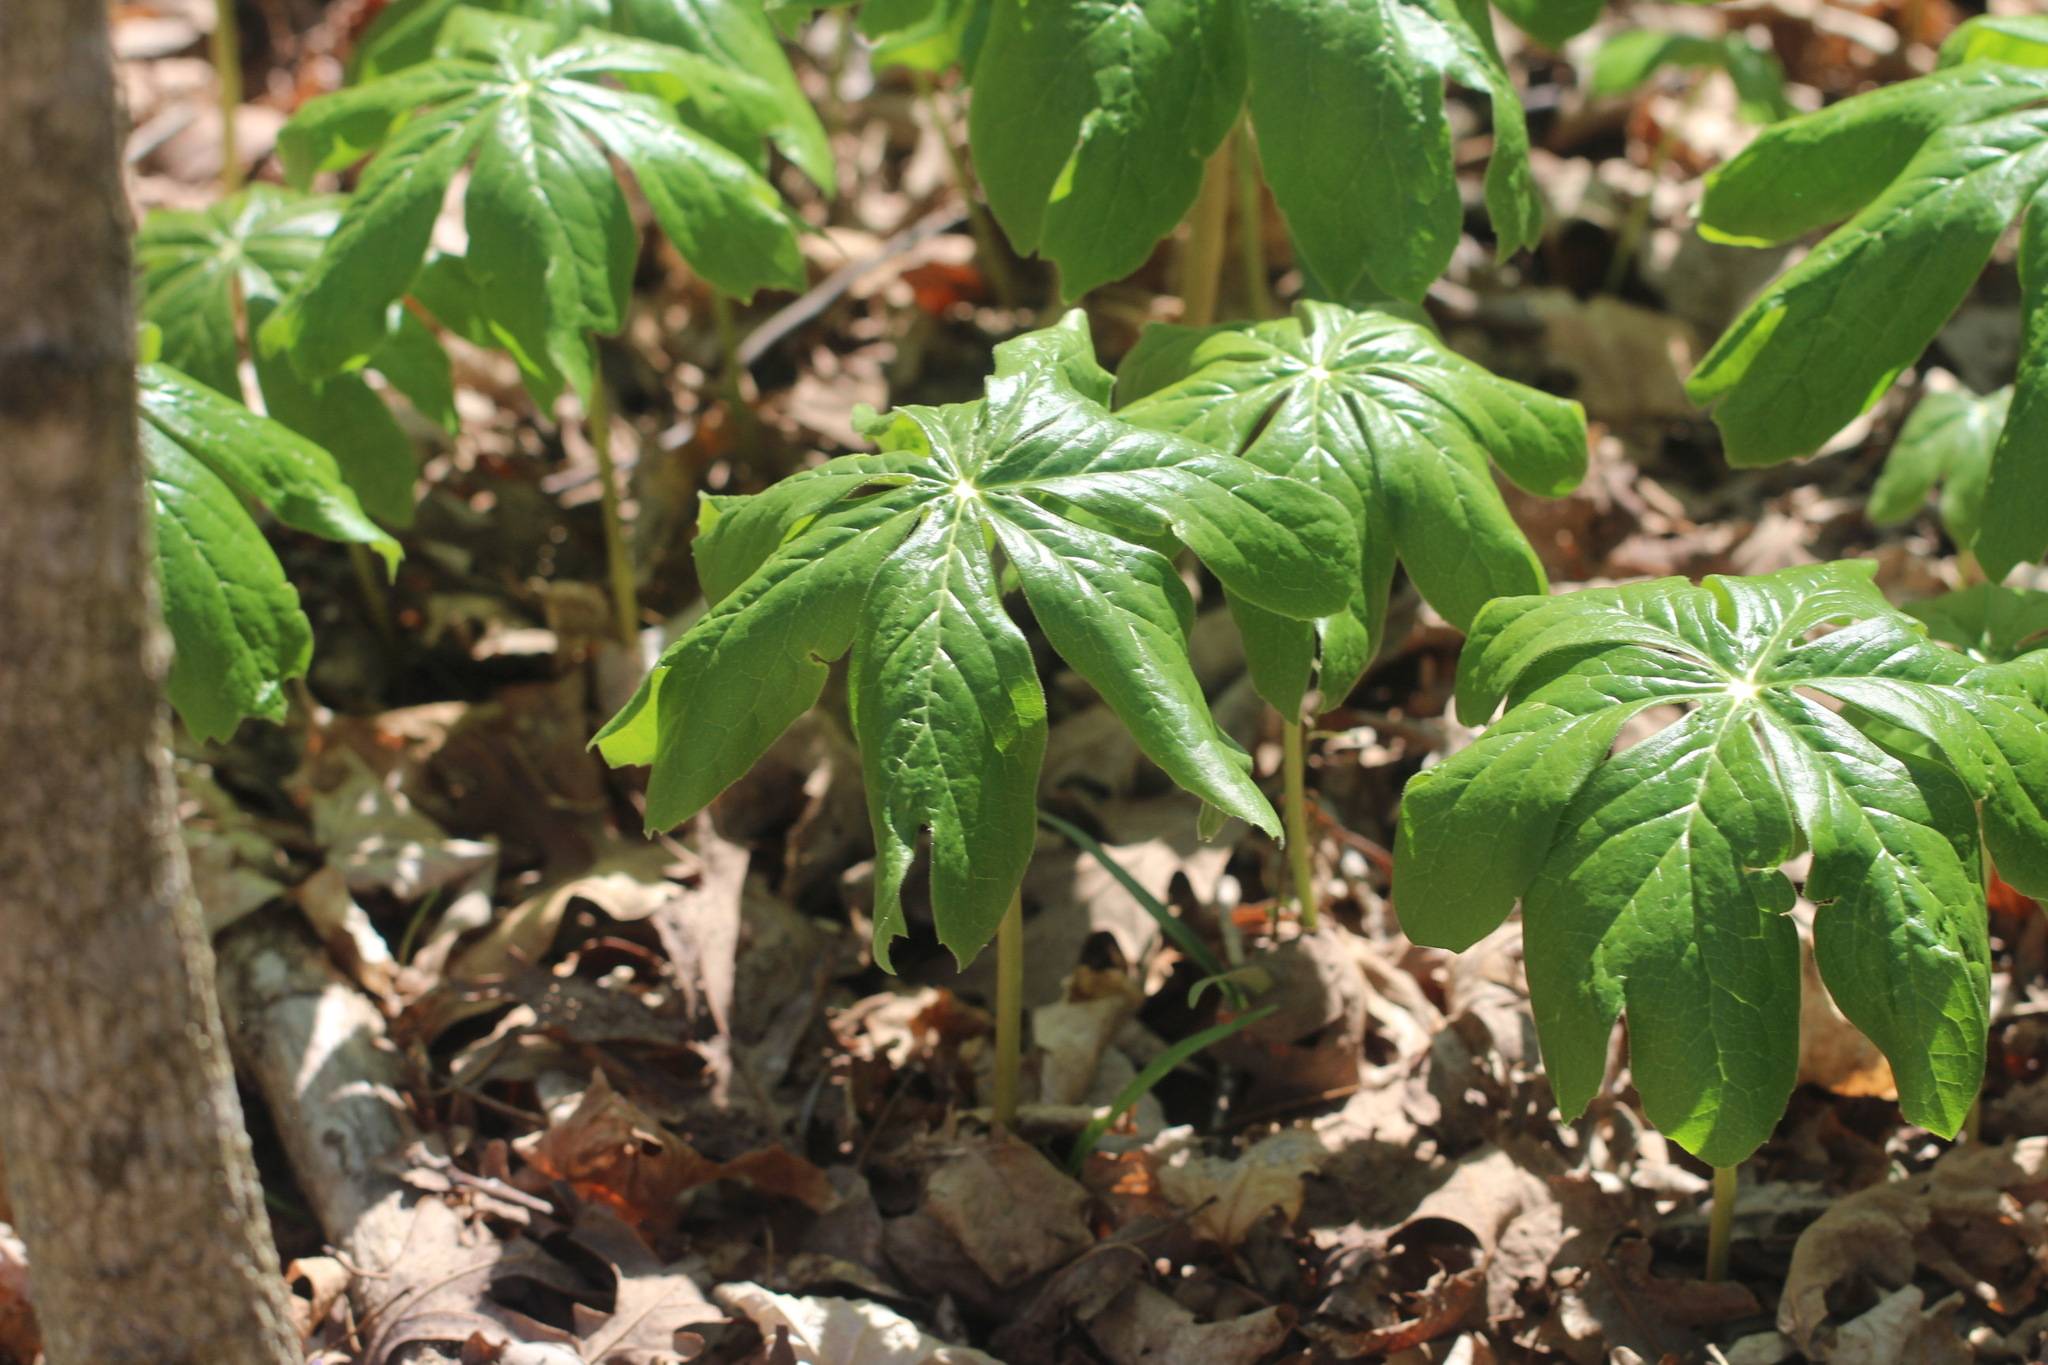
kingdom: Plantae
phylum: Tracheophyta
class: Magnoliopsida
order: Ranunculales
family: Berberidaceae
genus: Podophyllum
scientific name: Podophyllum peltatum
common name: Wild mandrake
